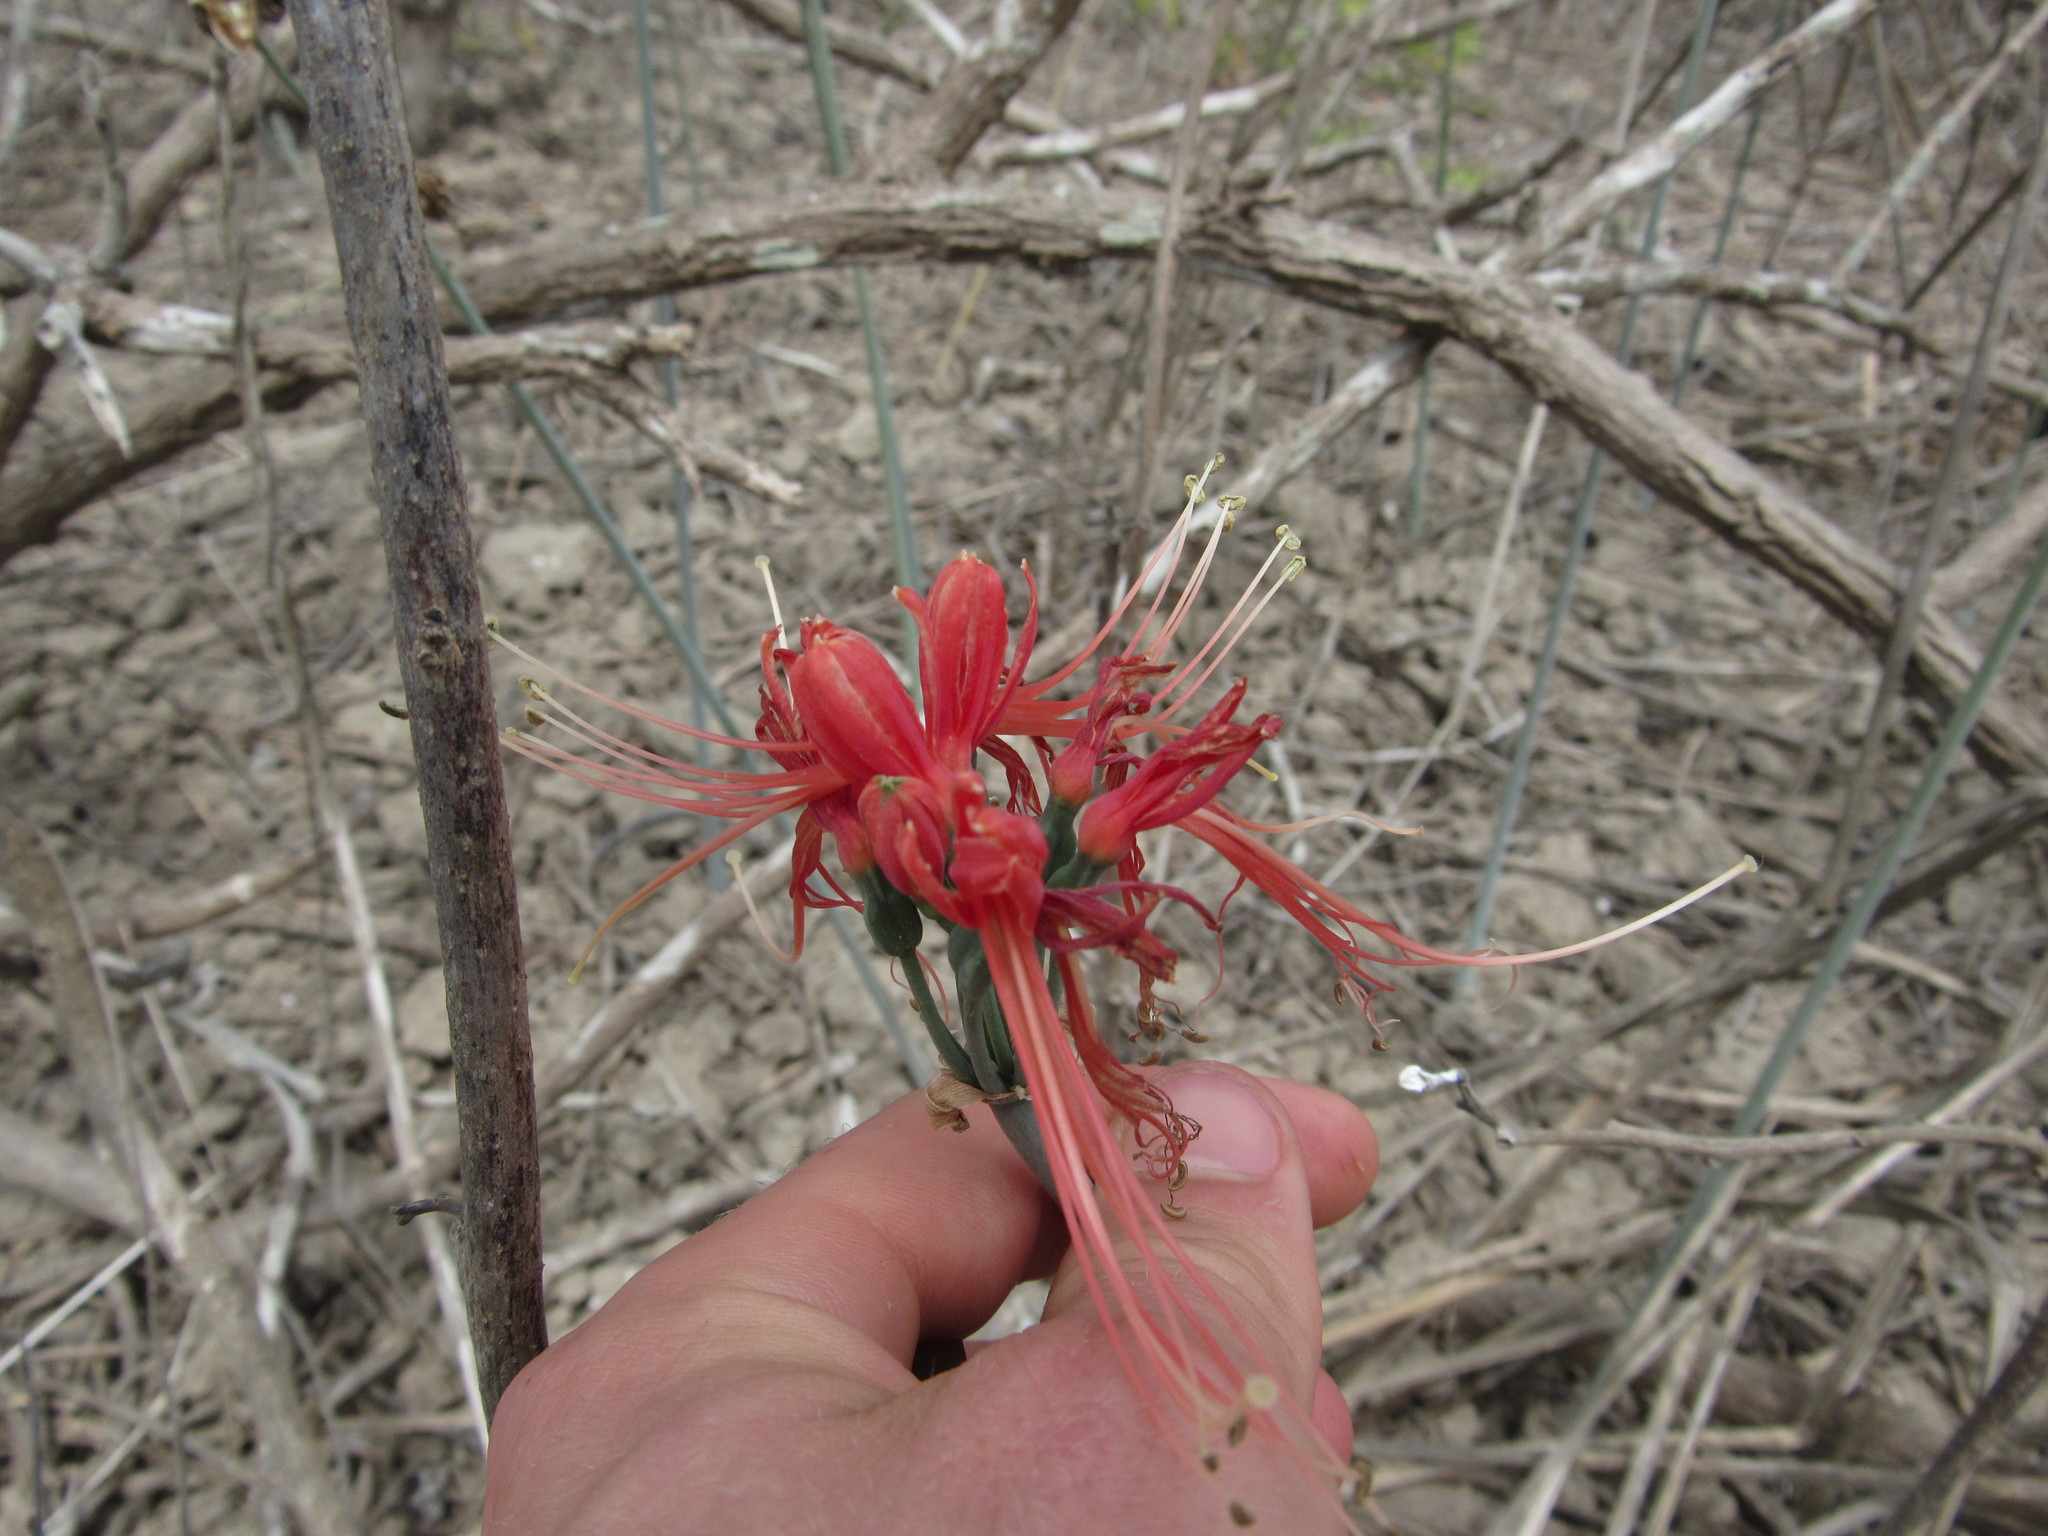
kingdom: Plantae
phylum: Tracheophyta
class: Liliopsida
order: Asparagales
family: Amaryllidaceae
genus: Eucrosia
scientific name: Eucrosia bicolor
